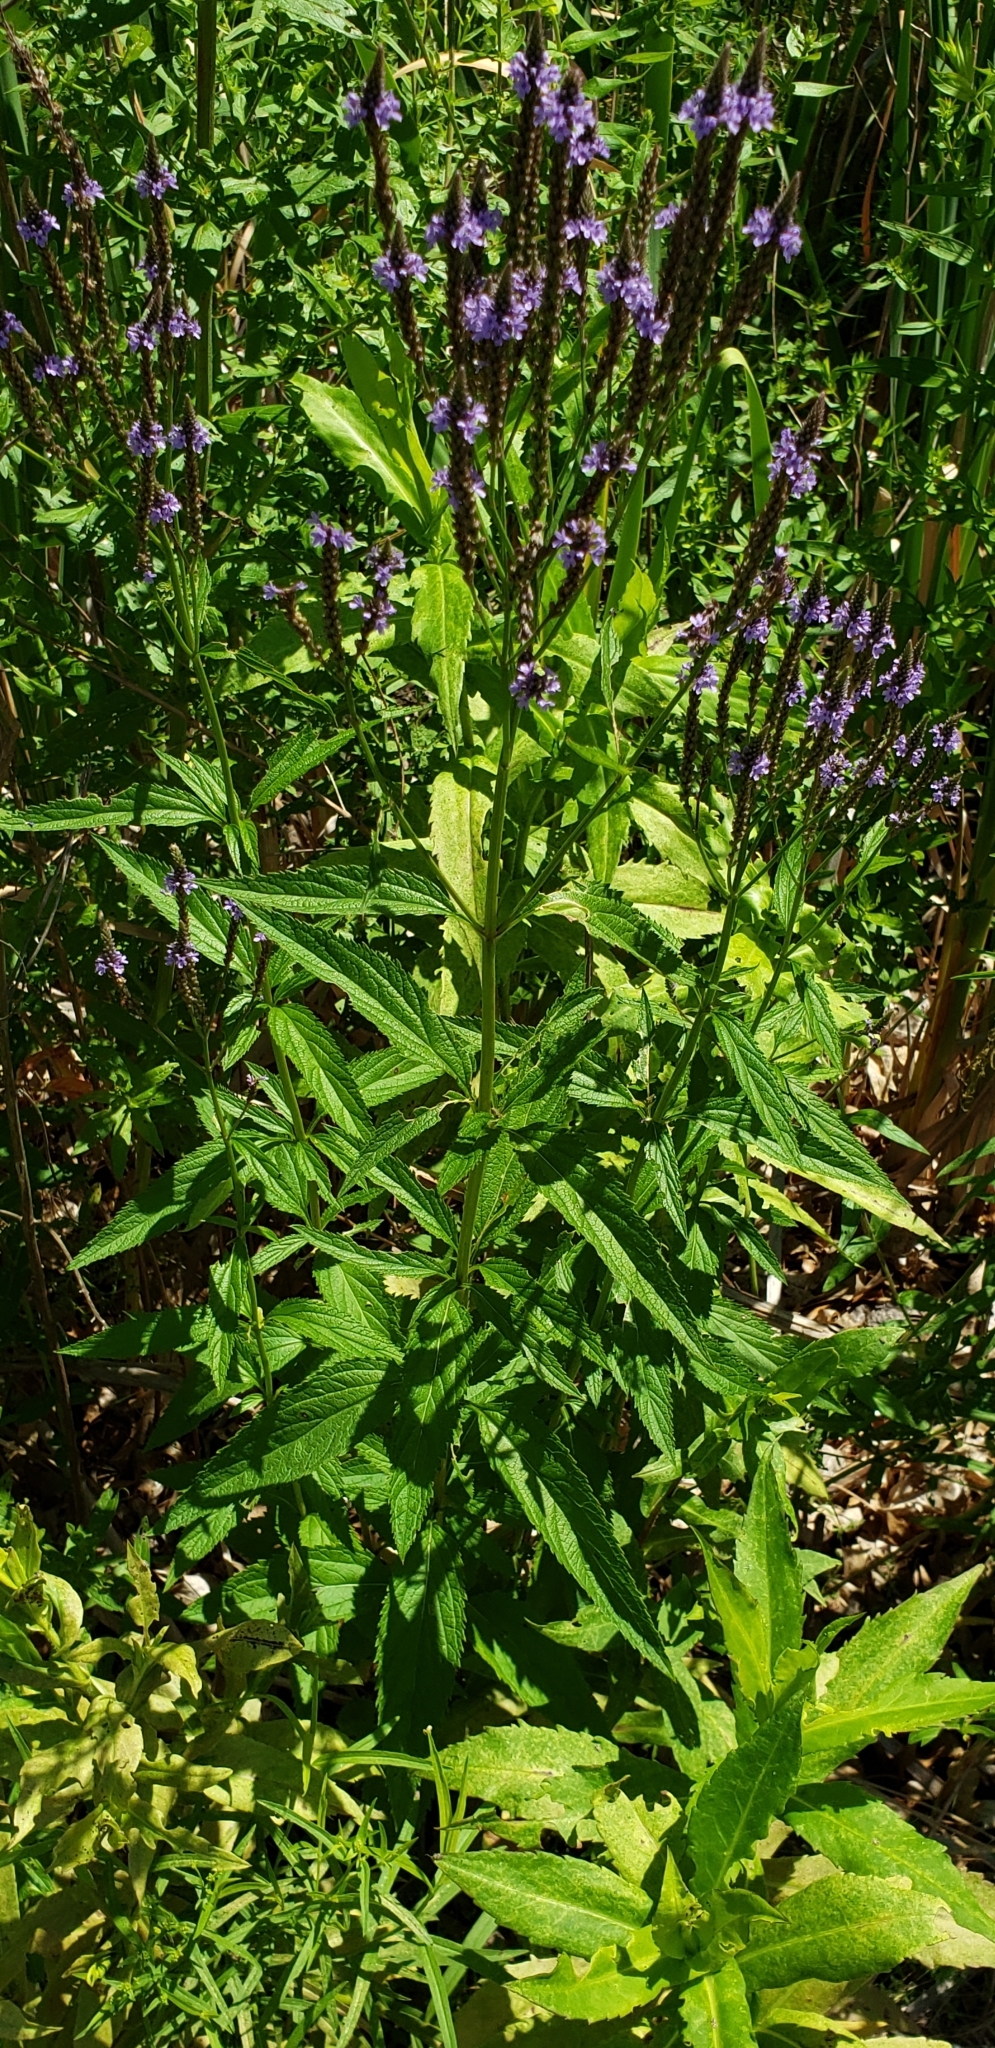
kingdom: Plantae
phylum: Tracheophyta
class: Magnoliopsida
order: Lamiales
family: Verbenaceae
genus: Verbena
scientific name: Verbena hastata
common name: American blue vervain
